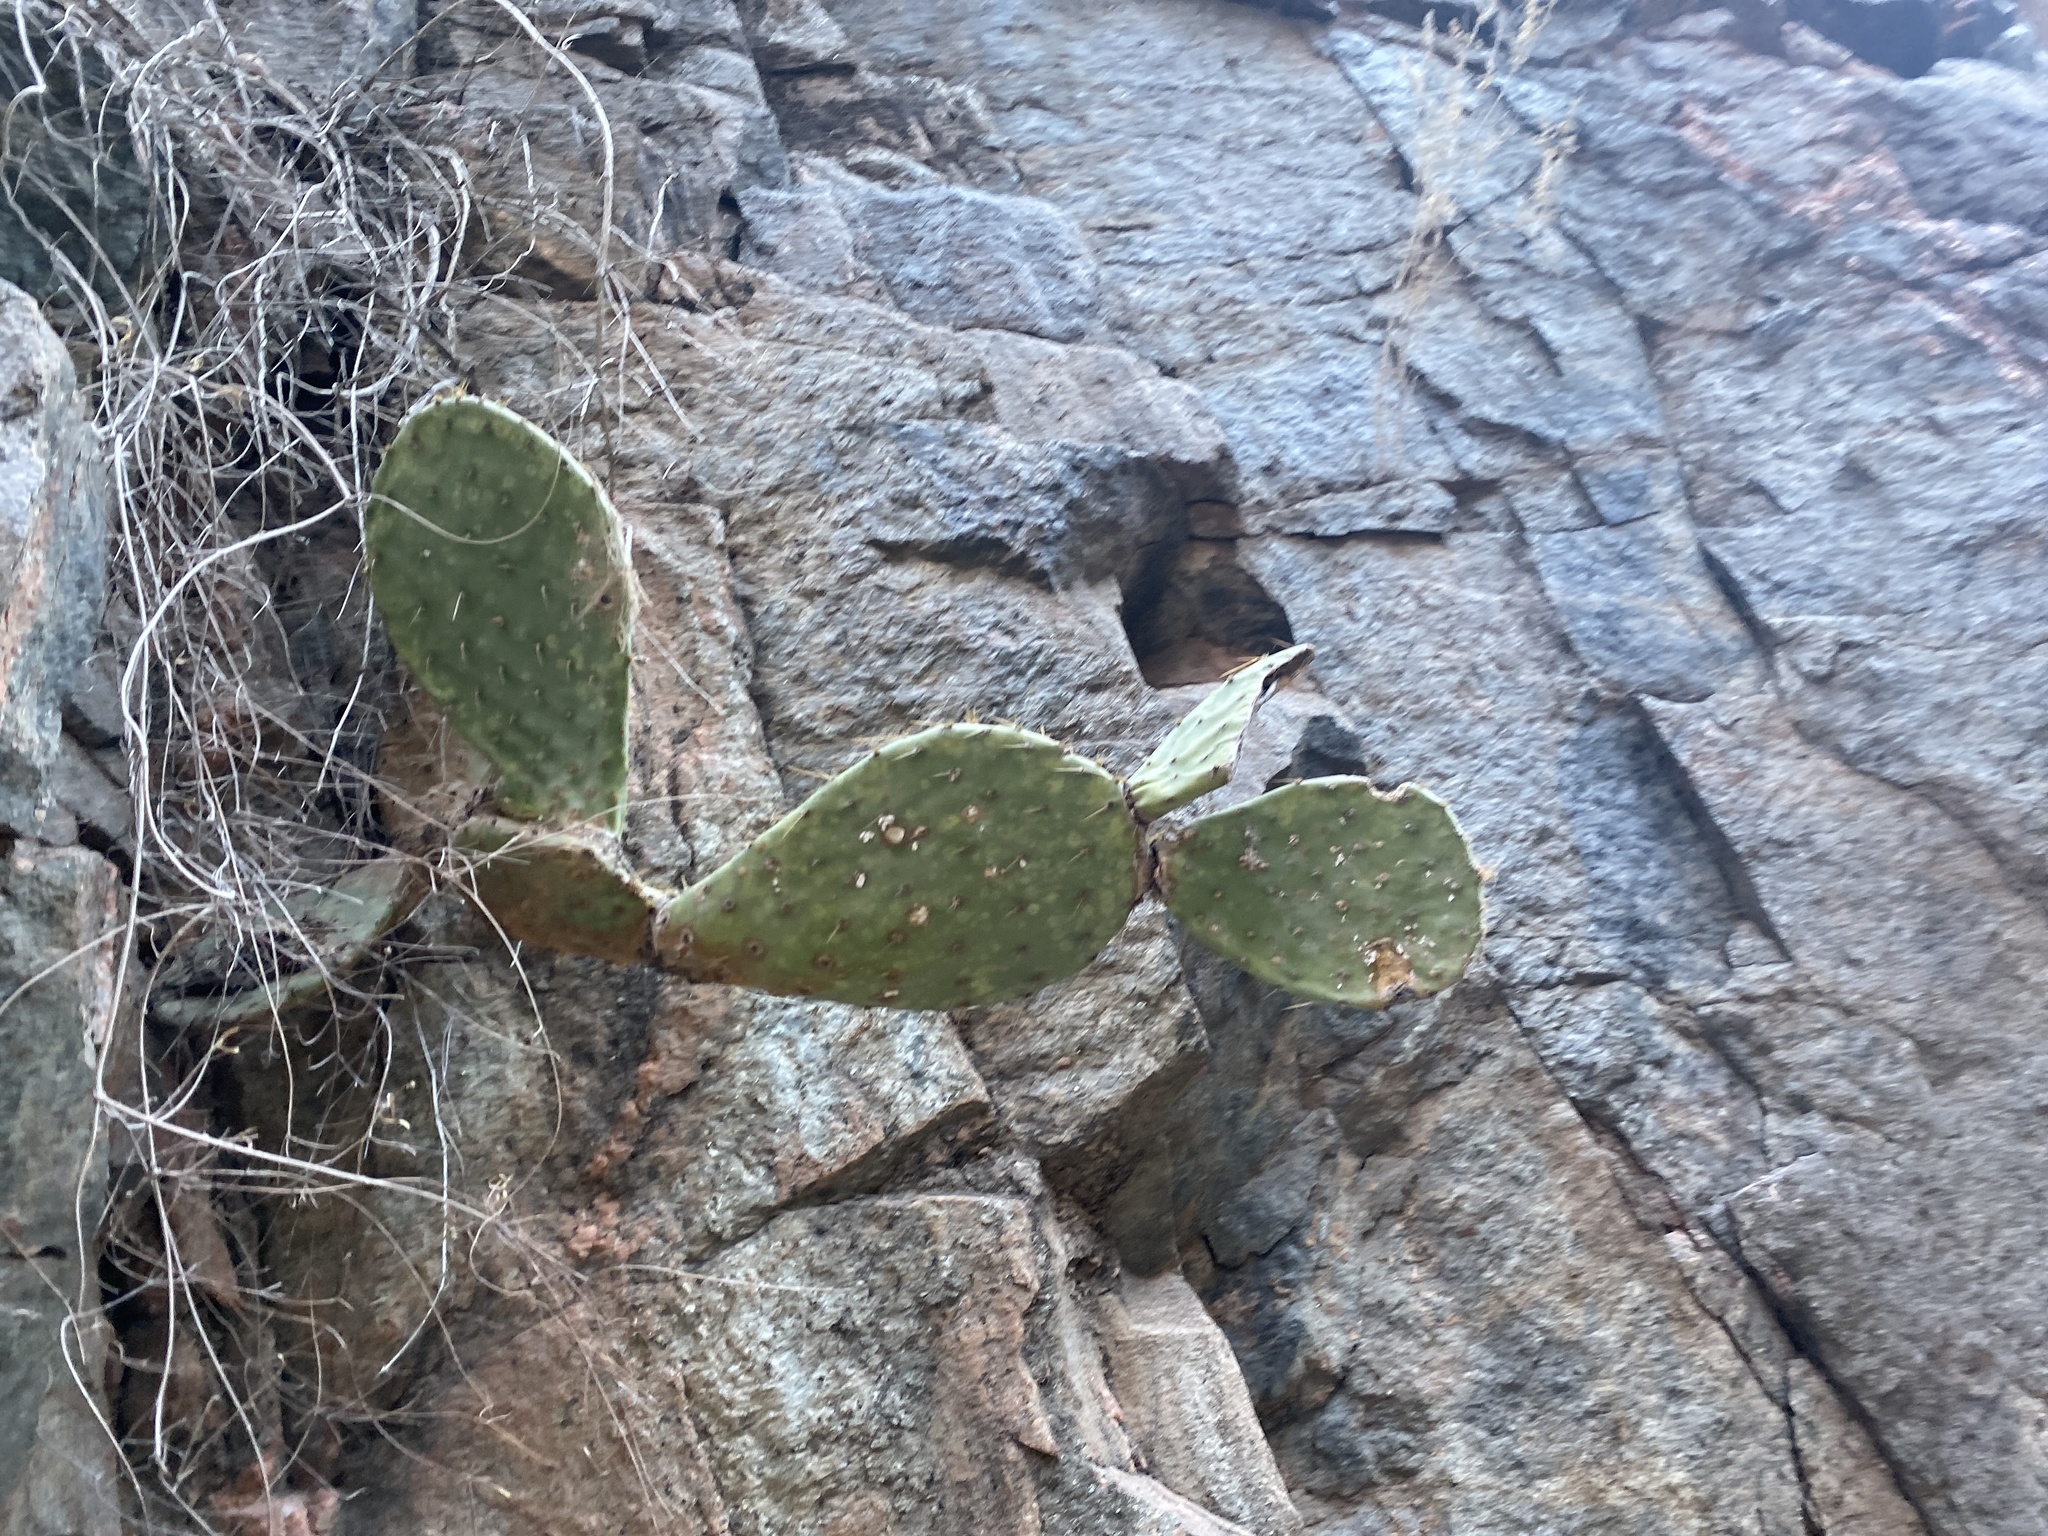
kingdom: Plantae
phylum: Tracheophyta
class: Magnoliopsida
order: Caryophyllales
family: Cactaceae
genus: Opuntia
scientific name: Opuntia phaeacantha
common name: New mexico prickly-pear
